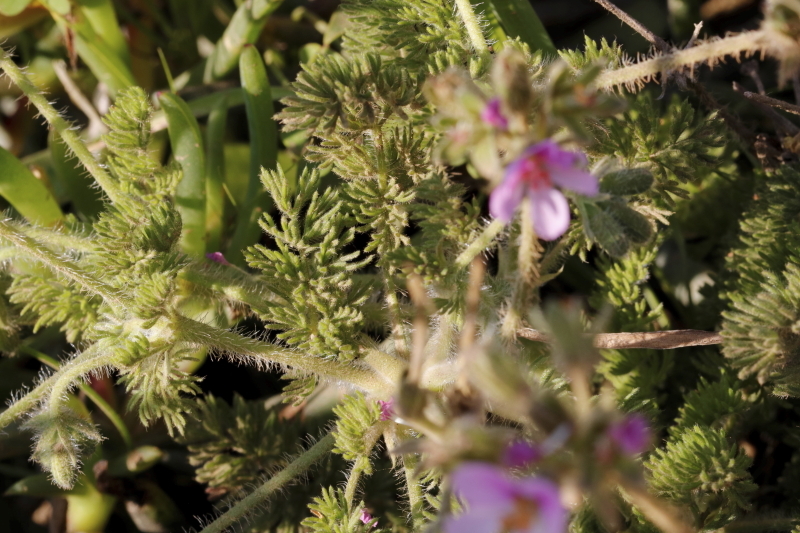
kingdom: Plantae
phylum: Tracheophyta
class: Magnoliopsida
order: Geraniales
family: Geraniaceae
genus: Pelargonium
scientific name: Pelargonium hirtum
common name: Fine-leaf pelargonium
